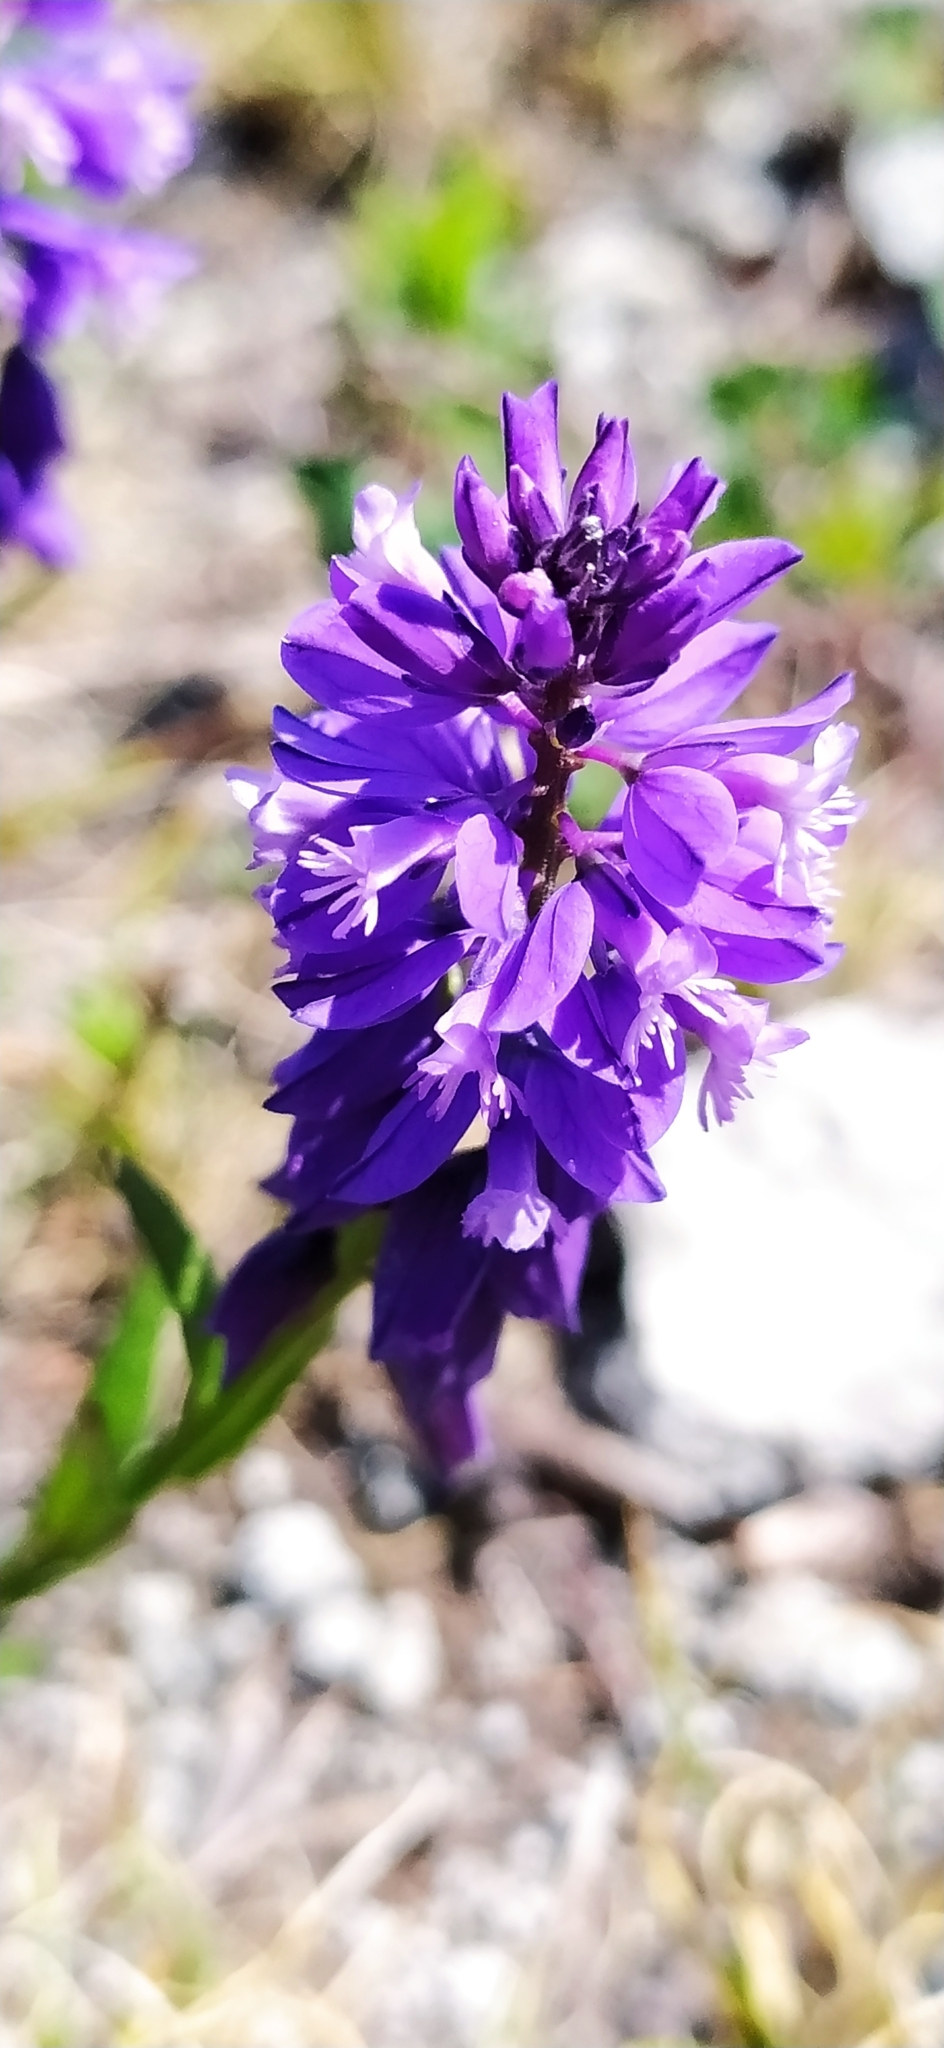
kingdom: Plantae
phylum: Tracheophyta
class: Magnoliopsida
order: Fabales
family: Polygalaceae
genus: Polygala
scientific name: Polygala comosa
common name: Tufted milkwort
